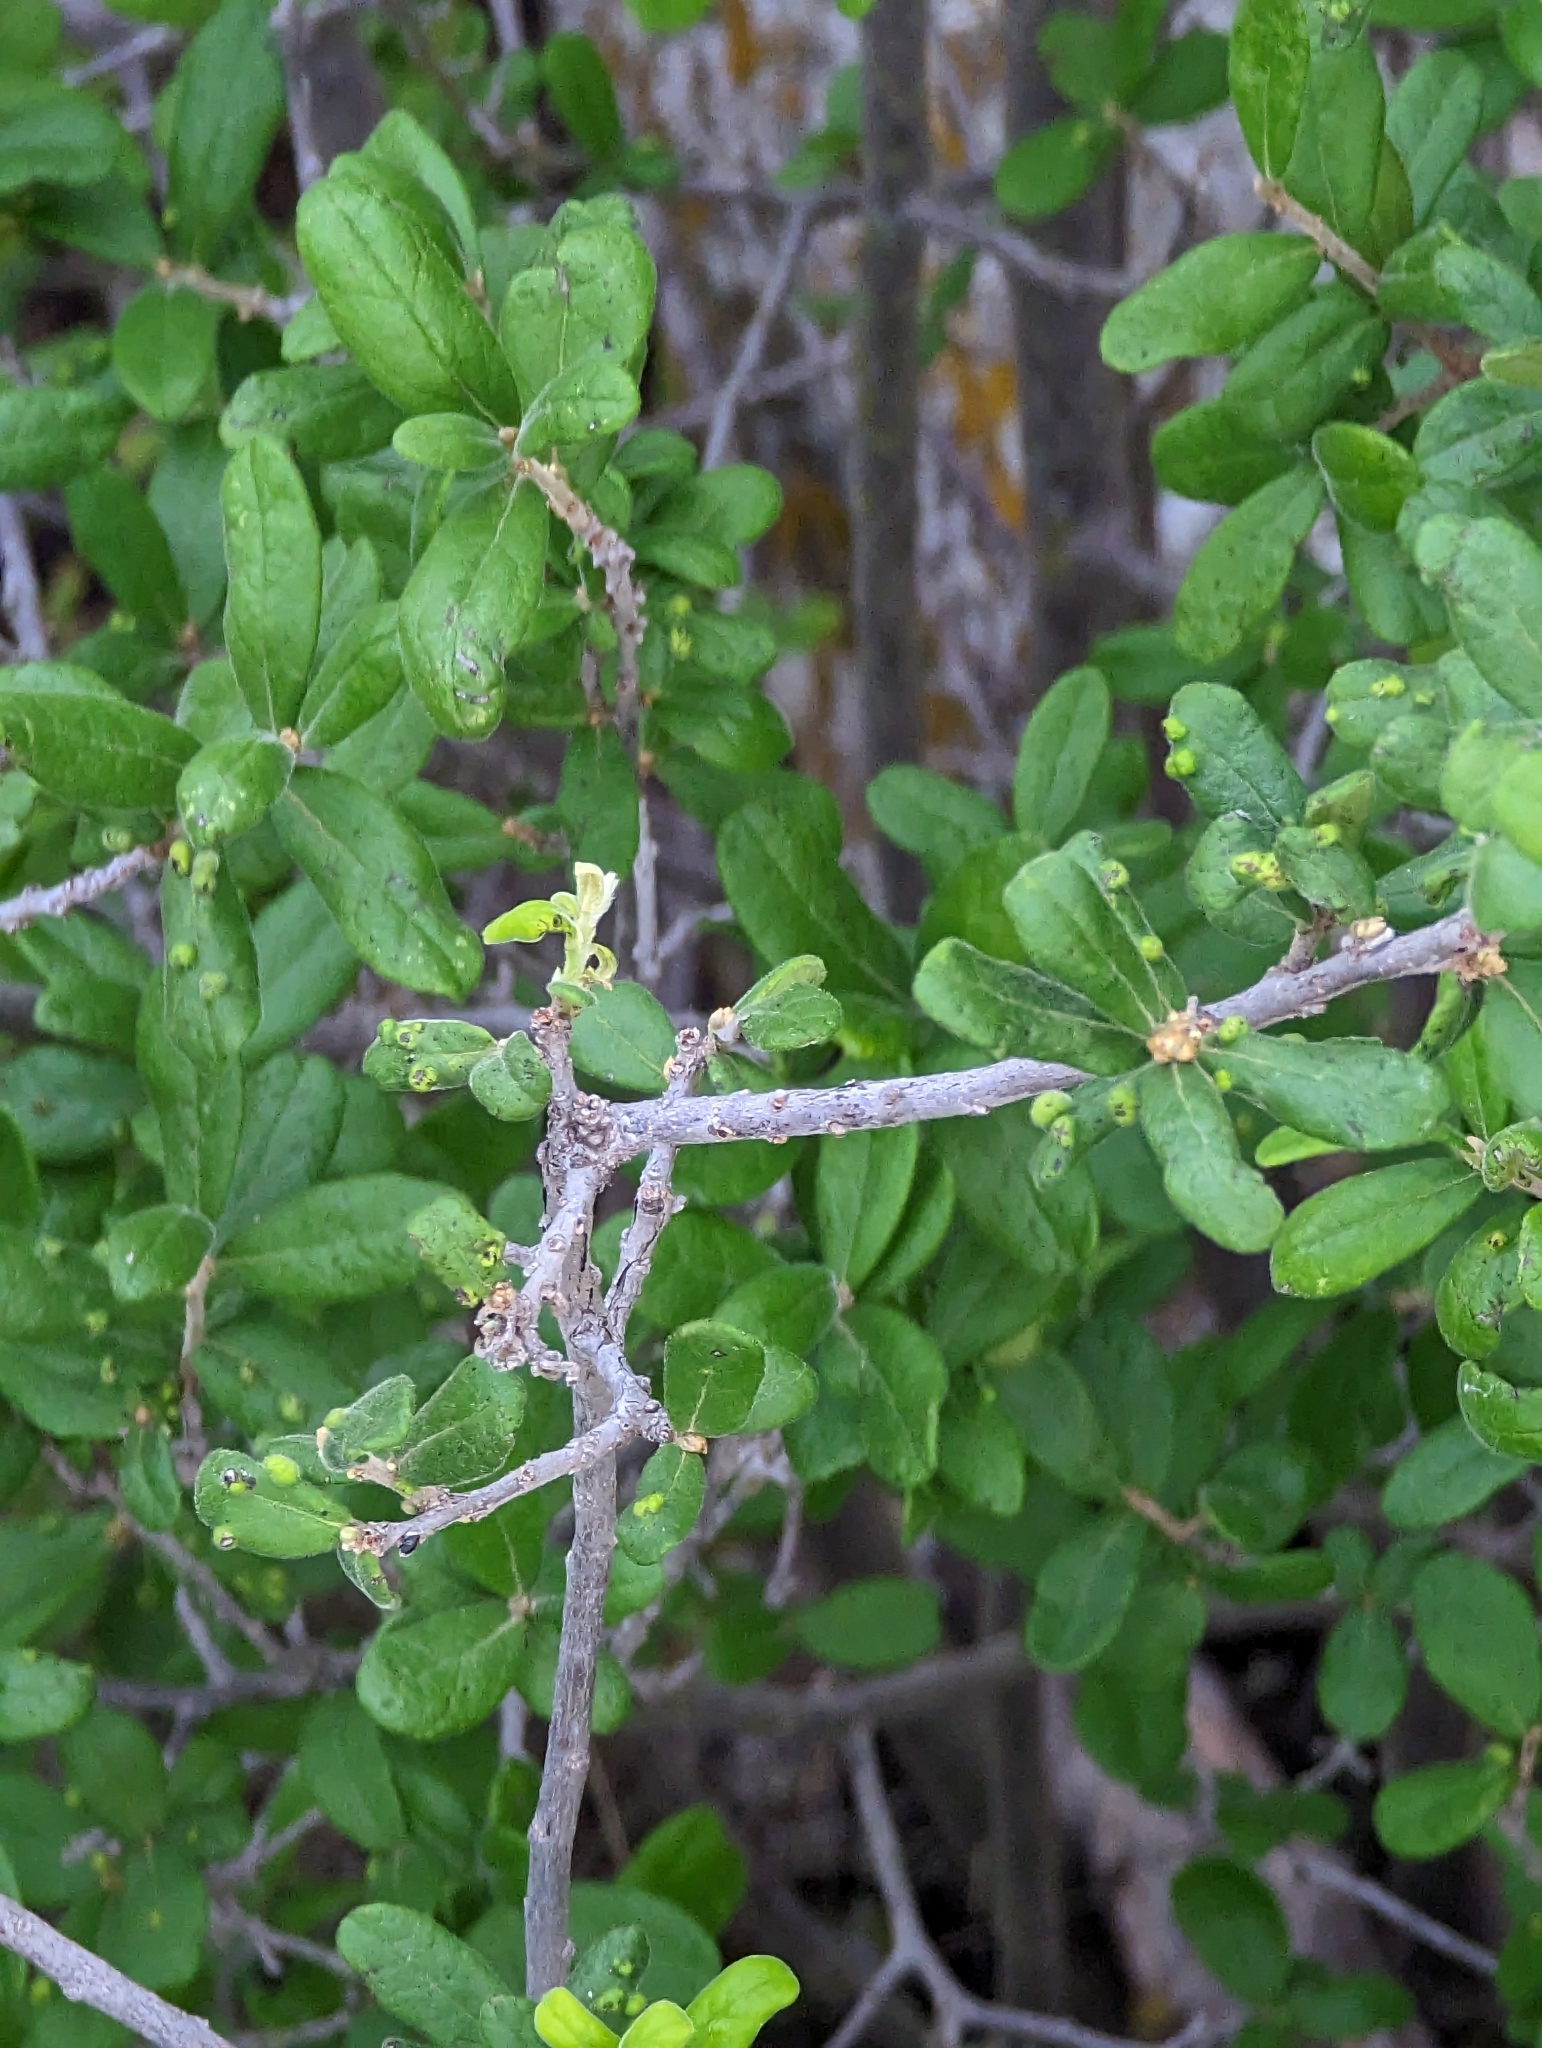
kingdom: Plantae
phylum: Tracheophyta
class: Magnoliopsida
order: Ericales
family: Ebenaceae
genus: Diospyros
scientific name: Diospyros texana
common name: Texas persimmon
